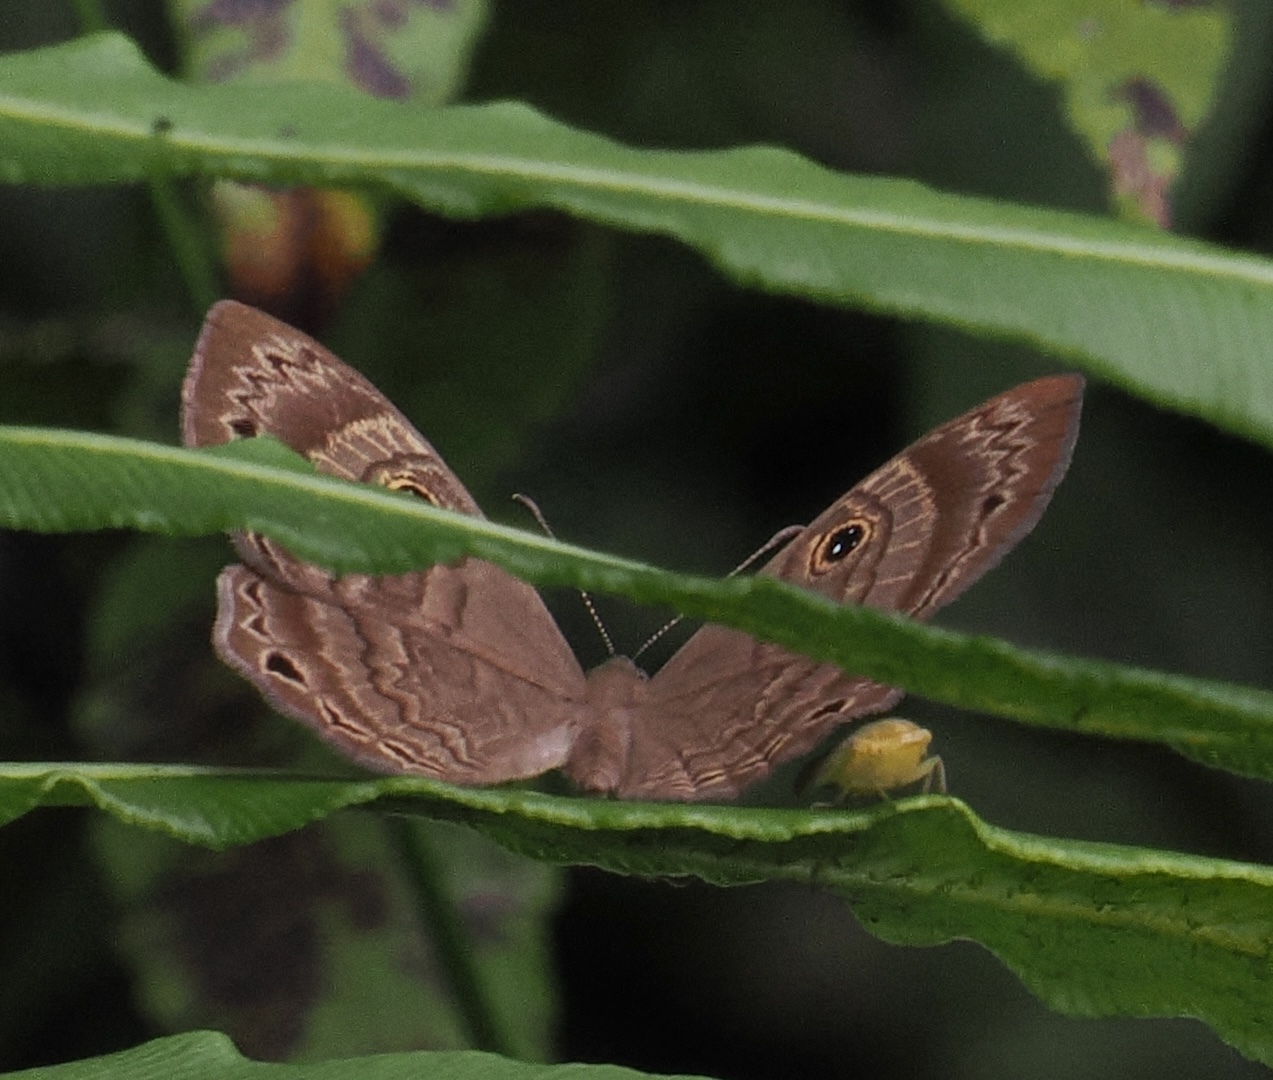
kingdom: Animalia
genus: Mesosemia
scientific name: Mesosemia odice
